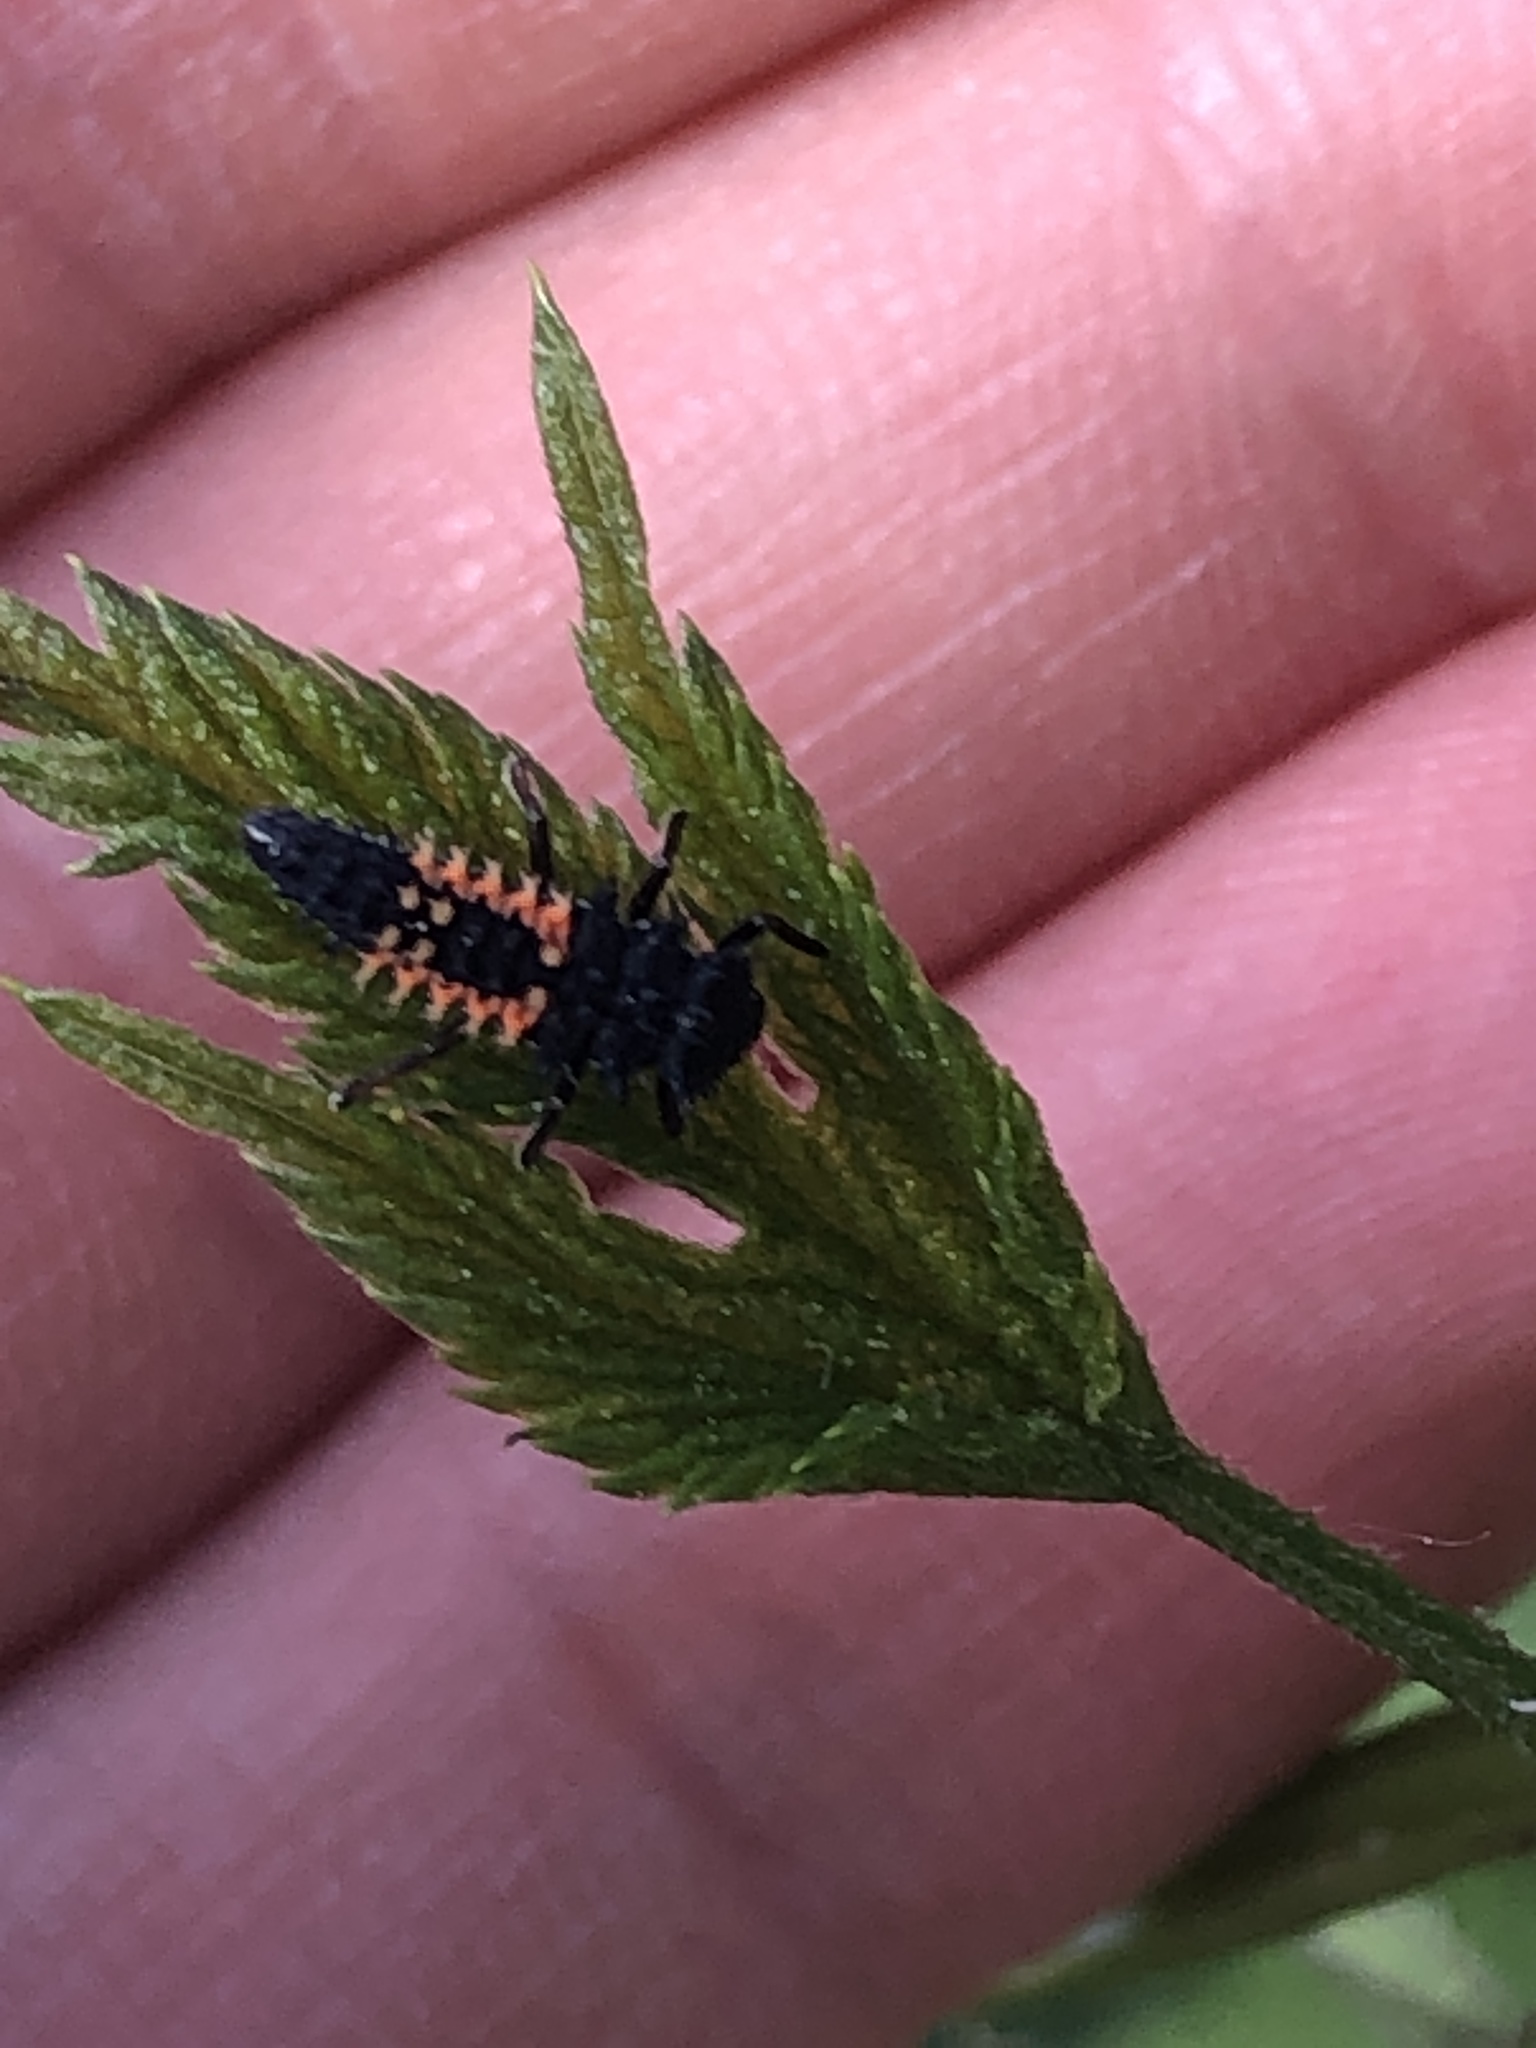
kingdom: Animalia
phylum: Arthropoda
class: Insecta
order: Coleoptera
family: Coccinellidae
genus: Harmonia
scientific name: Harmonia axyridis
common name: Harlequin ladybird
